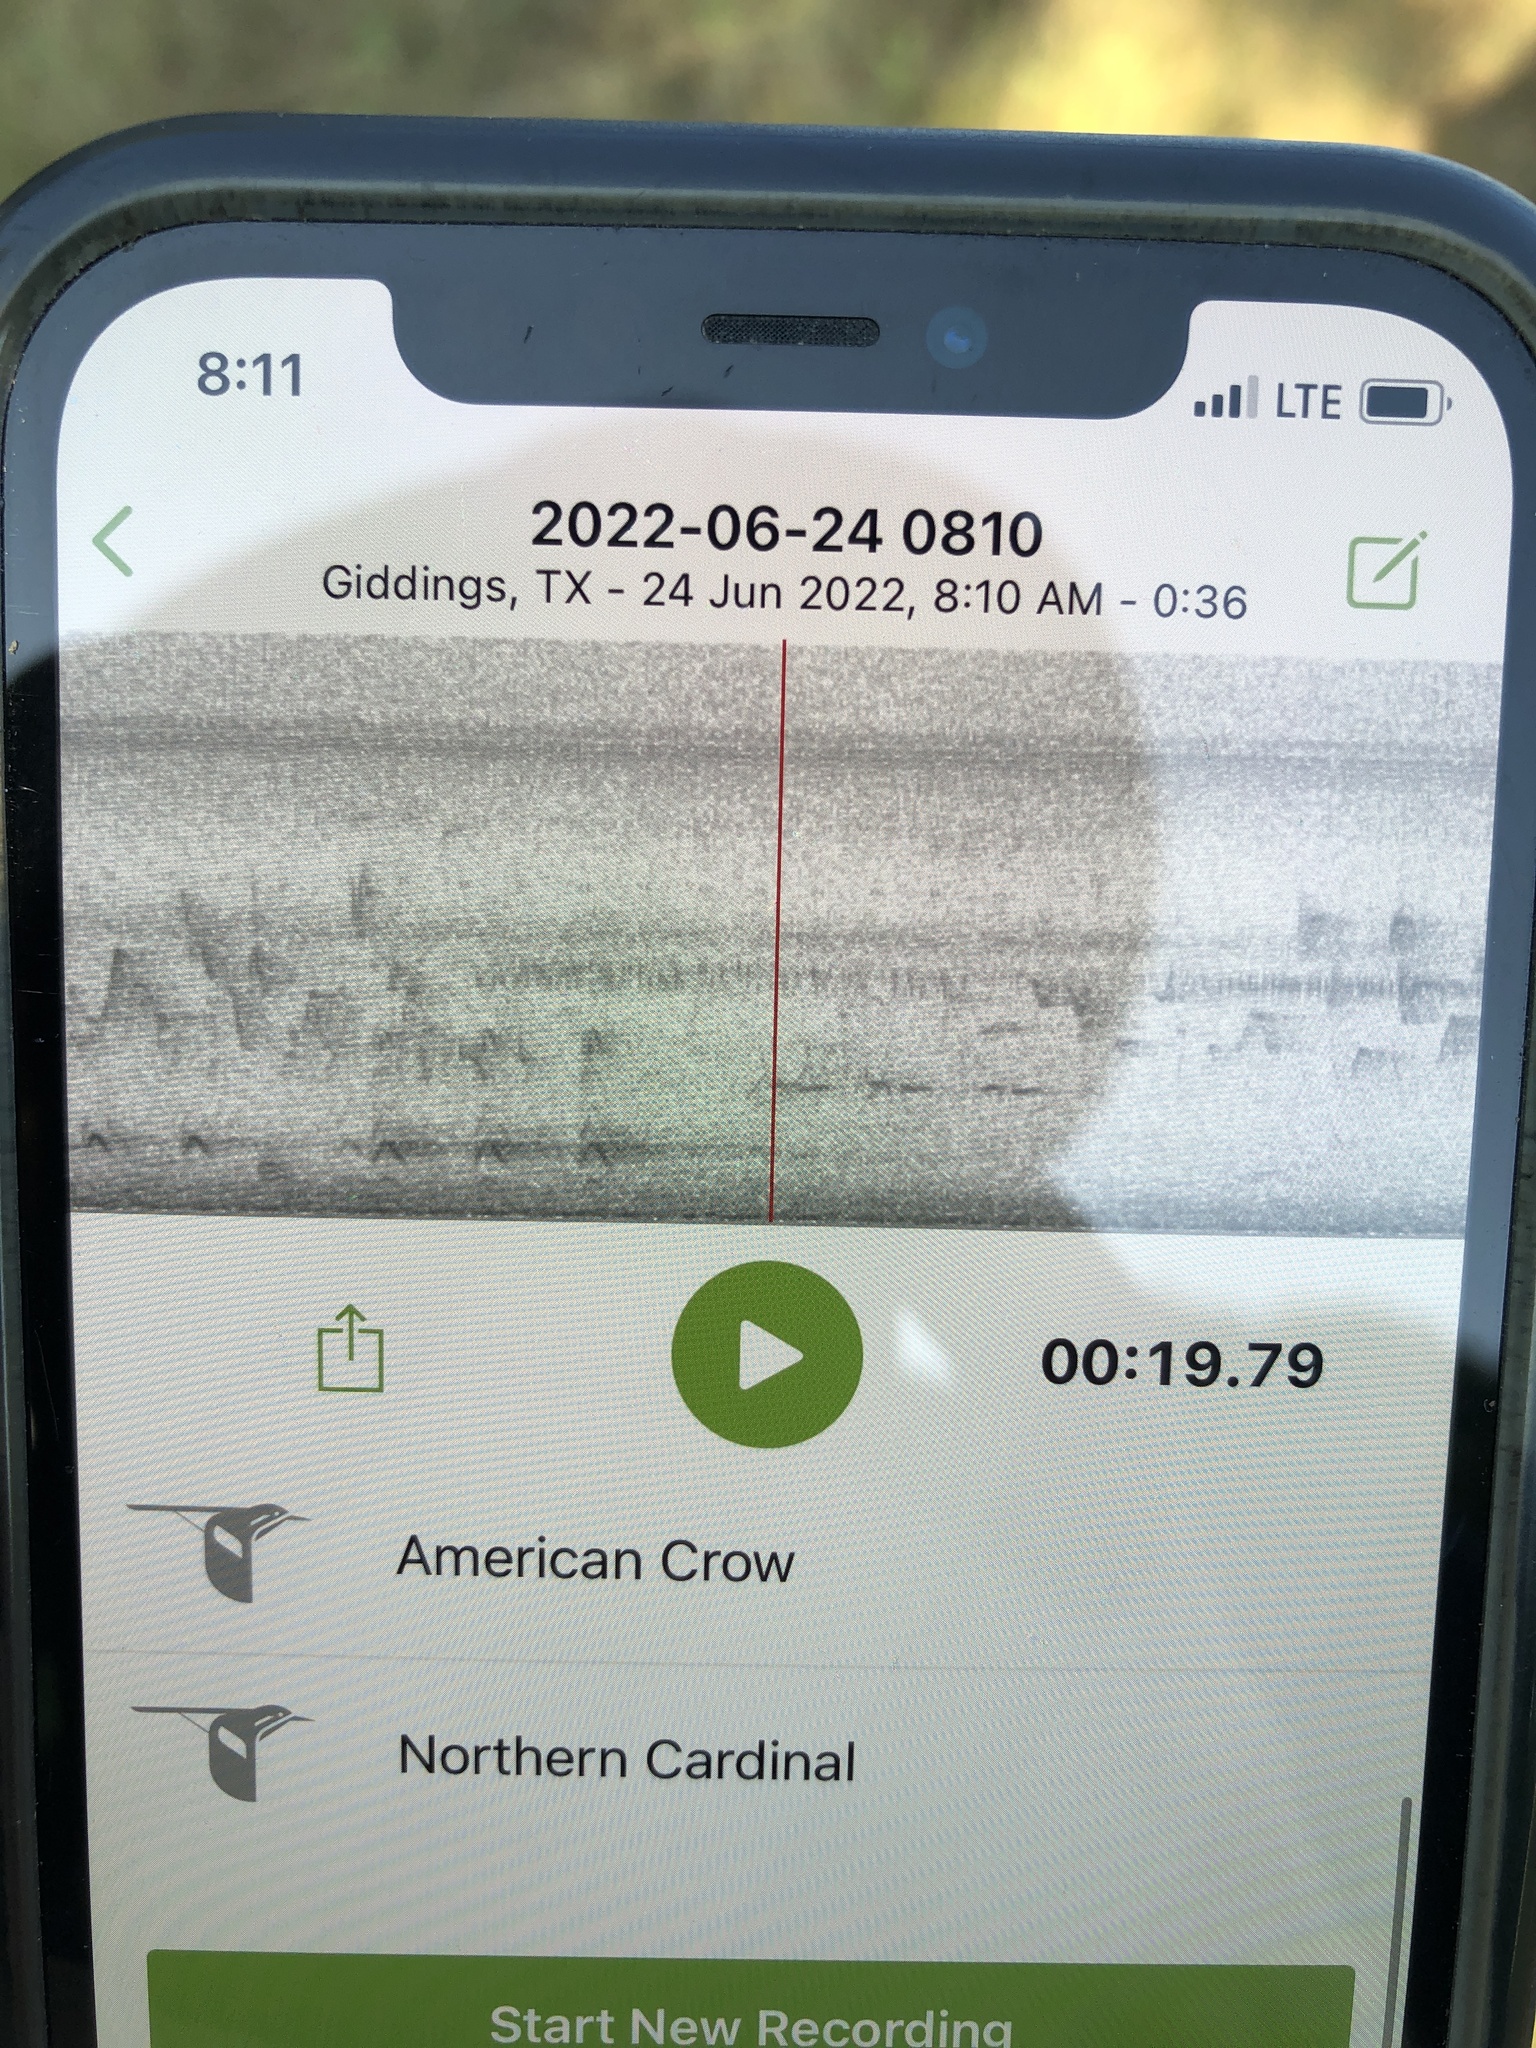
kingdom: Animalia
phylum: Chordata
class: Aves
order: Passeriformes
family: Corvidae
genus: Corvus
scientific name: Corvus brachyrhynchos
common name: American crow
